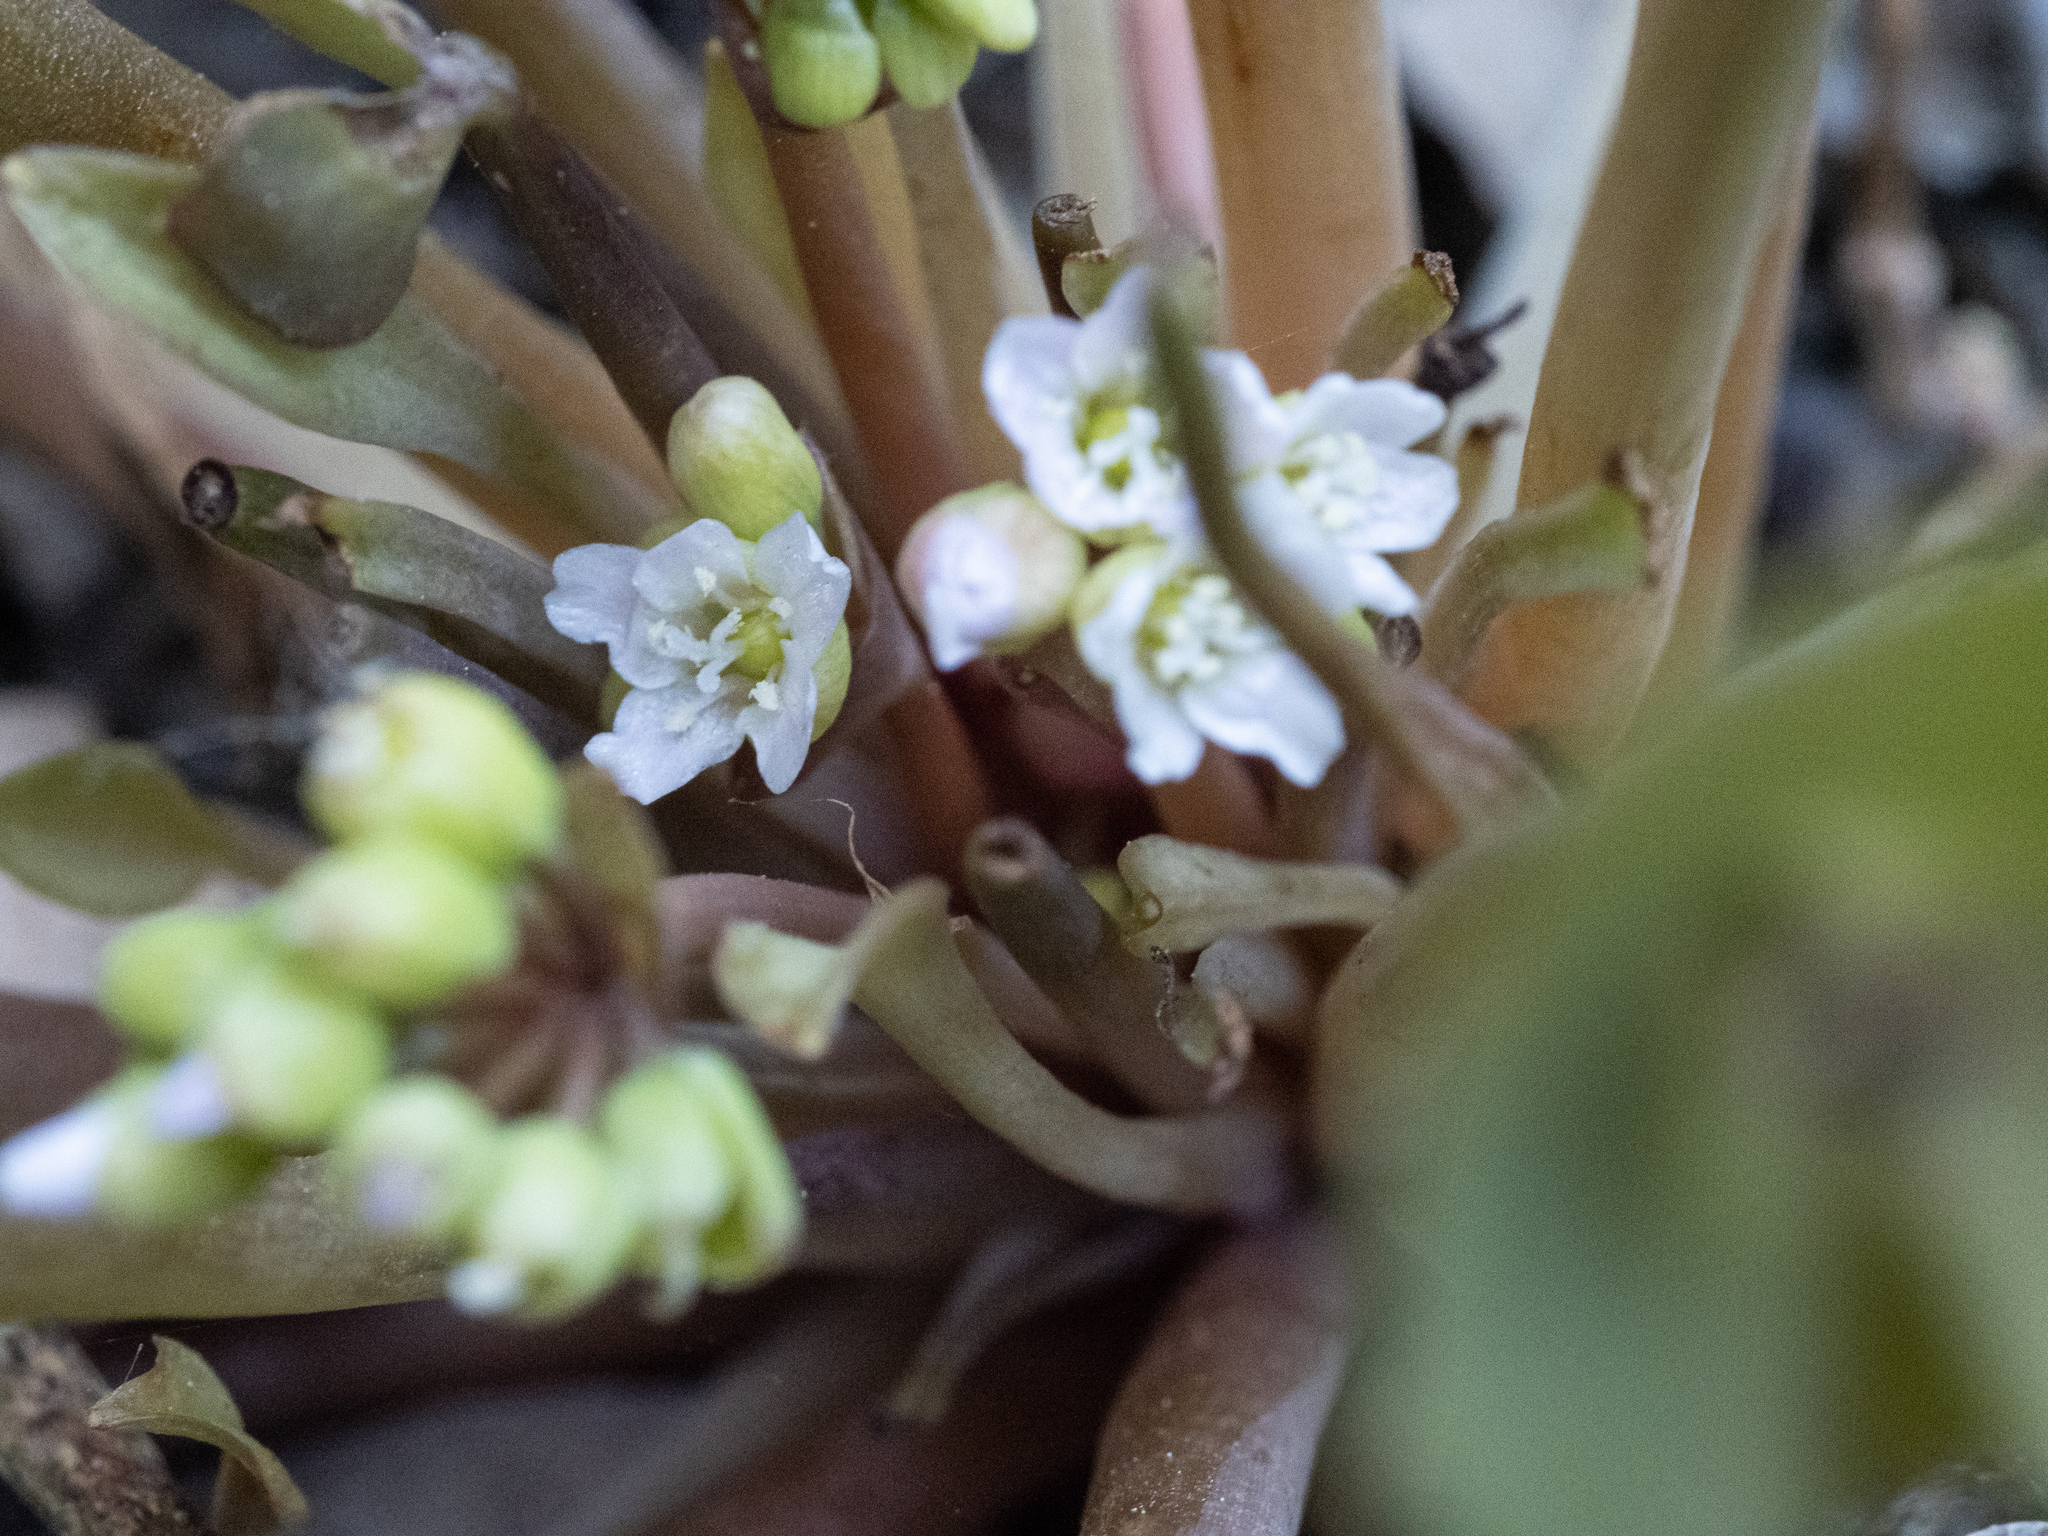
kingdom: Plantae
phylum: Tracheophyta
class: Magnoliopsida
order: Caryophyllales
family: Montiaceae
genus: Claytonia
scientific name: Claytonia rubra
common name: Erubescent miner's-lettuce
